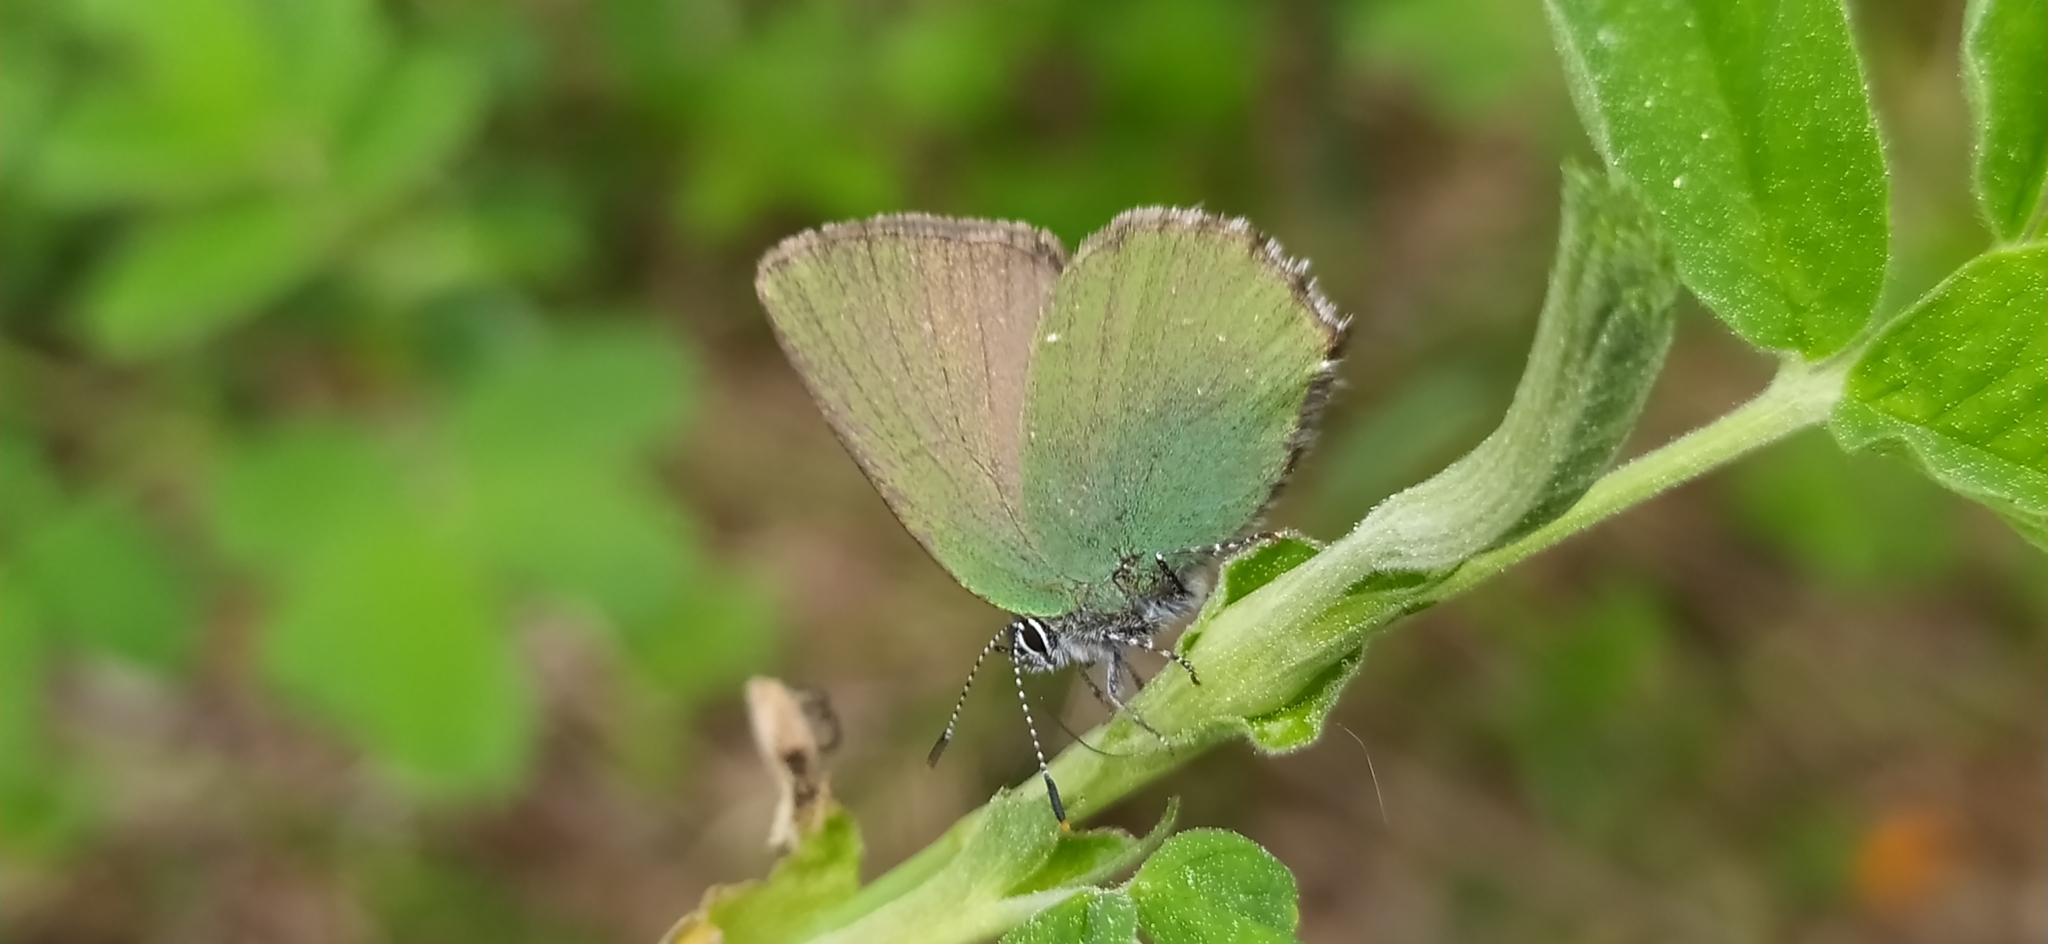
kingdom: Animalia
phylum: Arthropoda
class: Insecta
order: Lepidoptera
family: Lycaenidae
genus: Callophrys
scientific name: Callophrys rubi
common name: Green hairstreak
